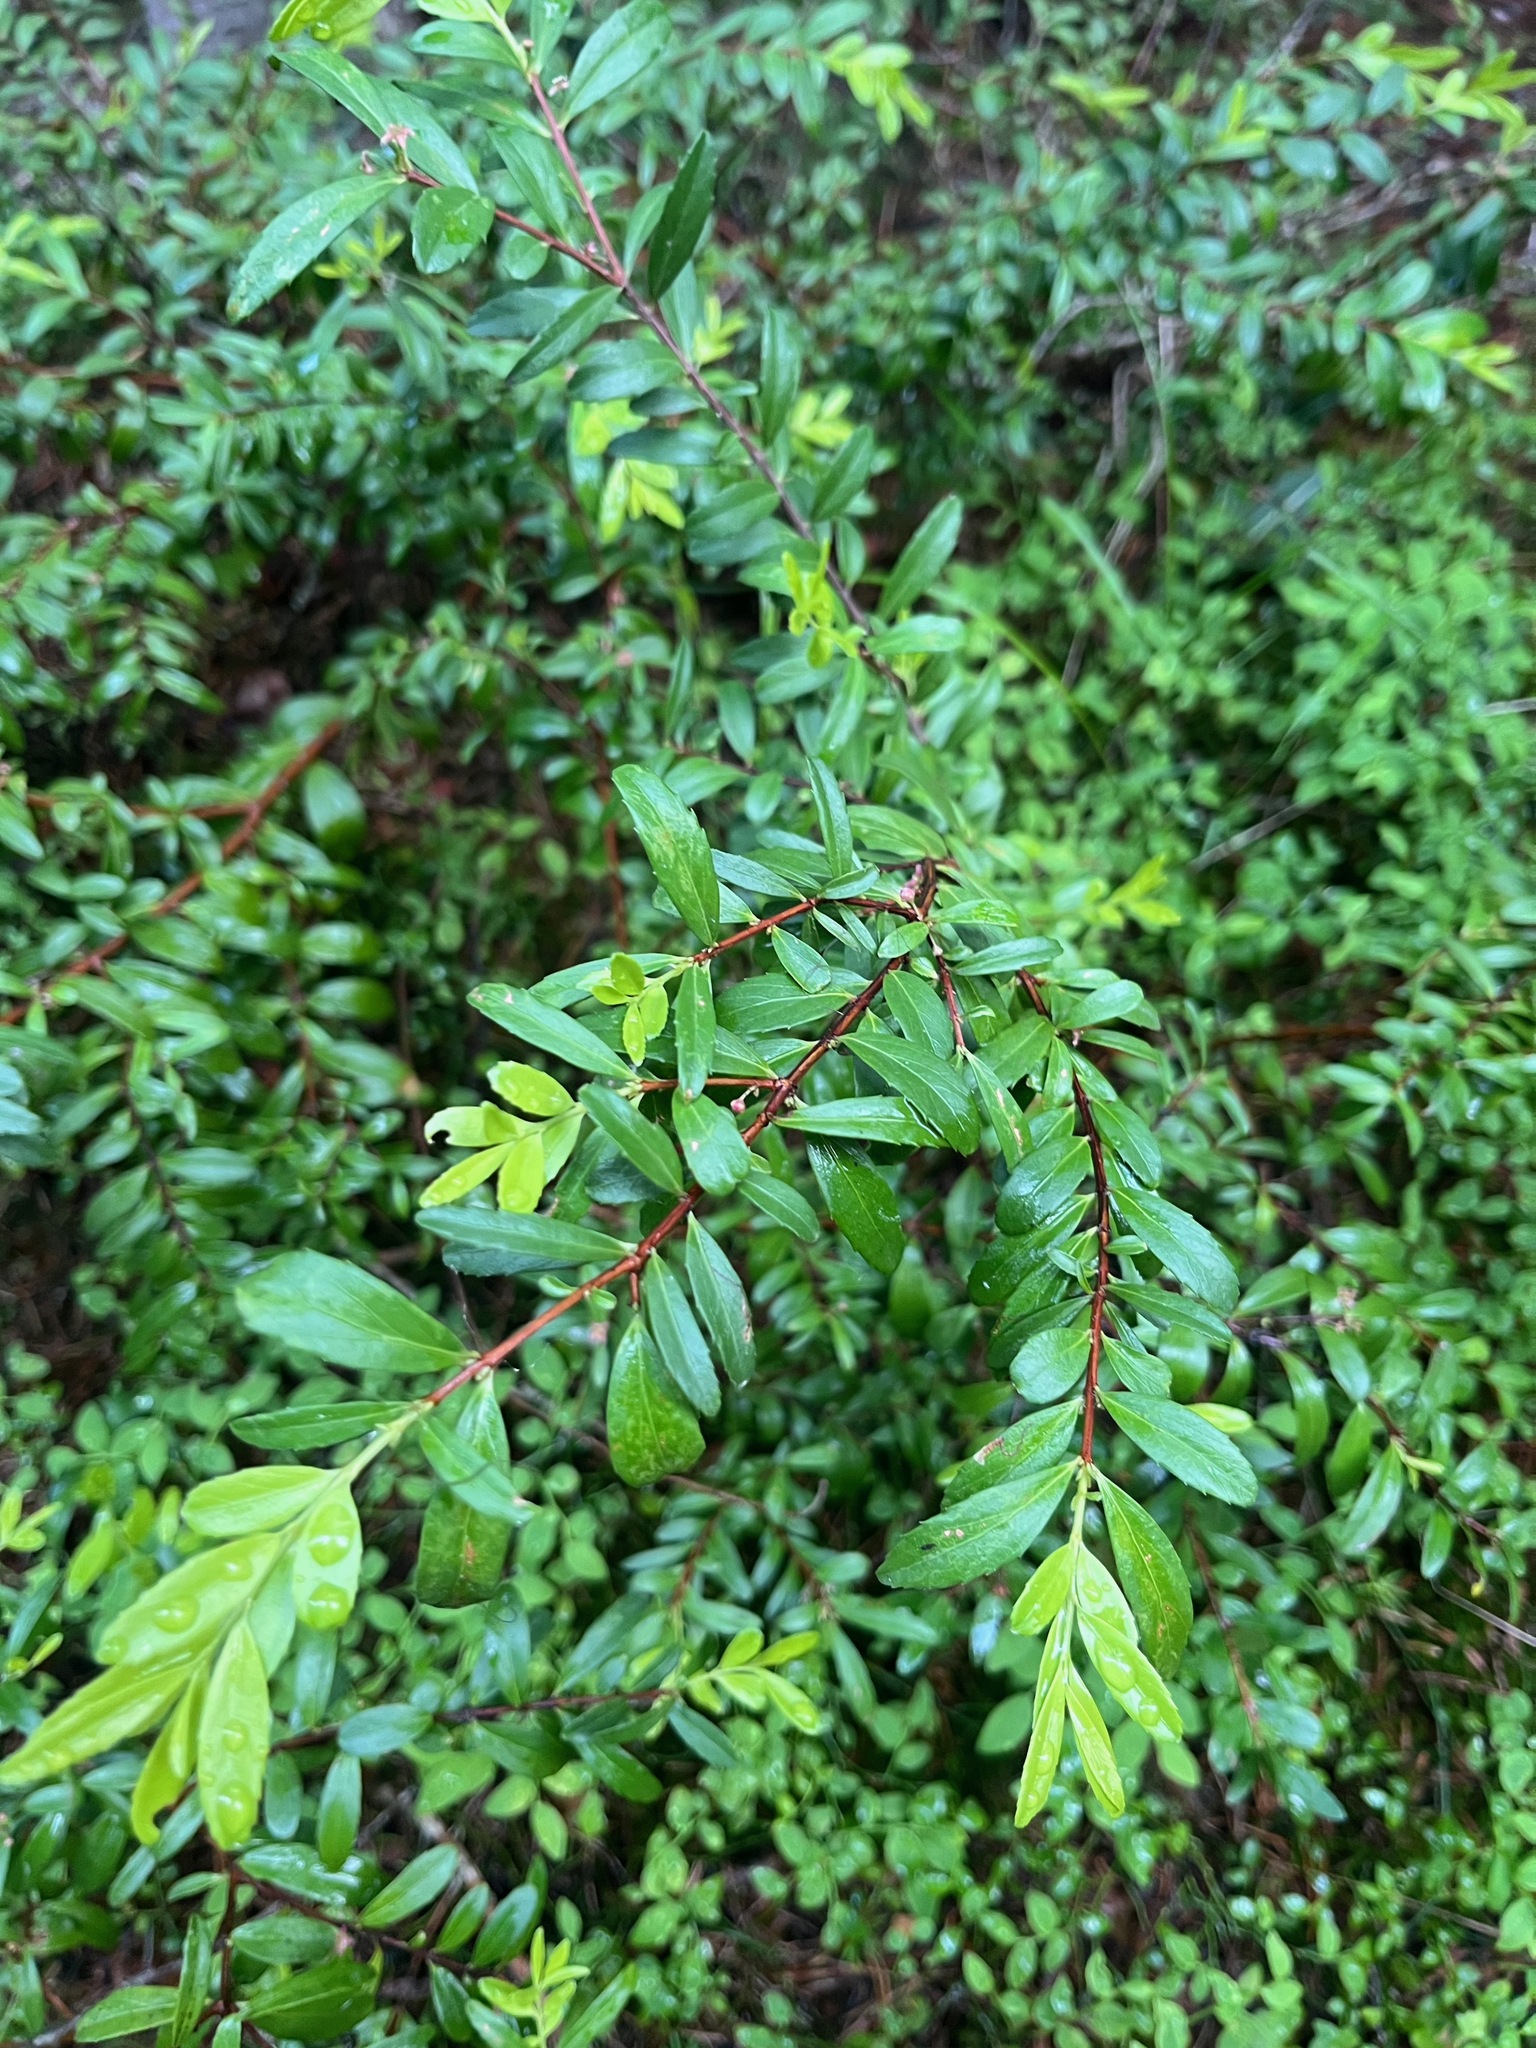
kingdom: Plantae
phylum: Tracheophyta
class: Magnoliopsida
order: Celastrales
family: Celastraceae
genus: Paxistima
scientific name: Paxistima myrsinites
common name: Mountain-lover
